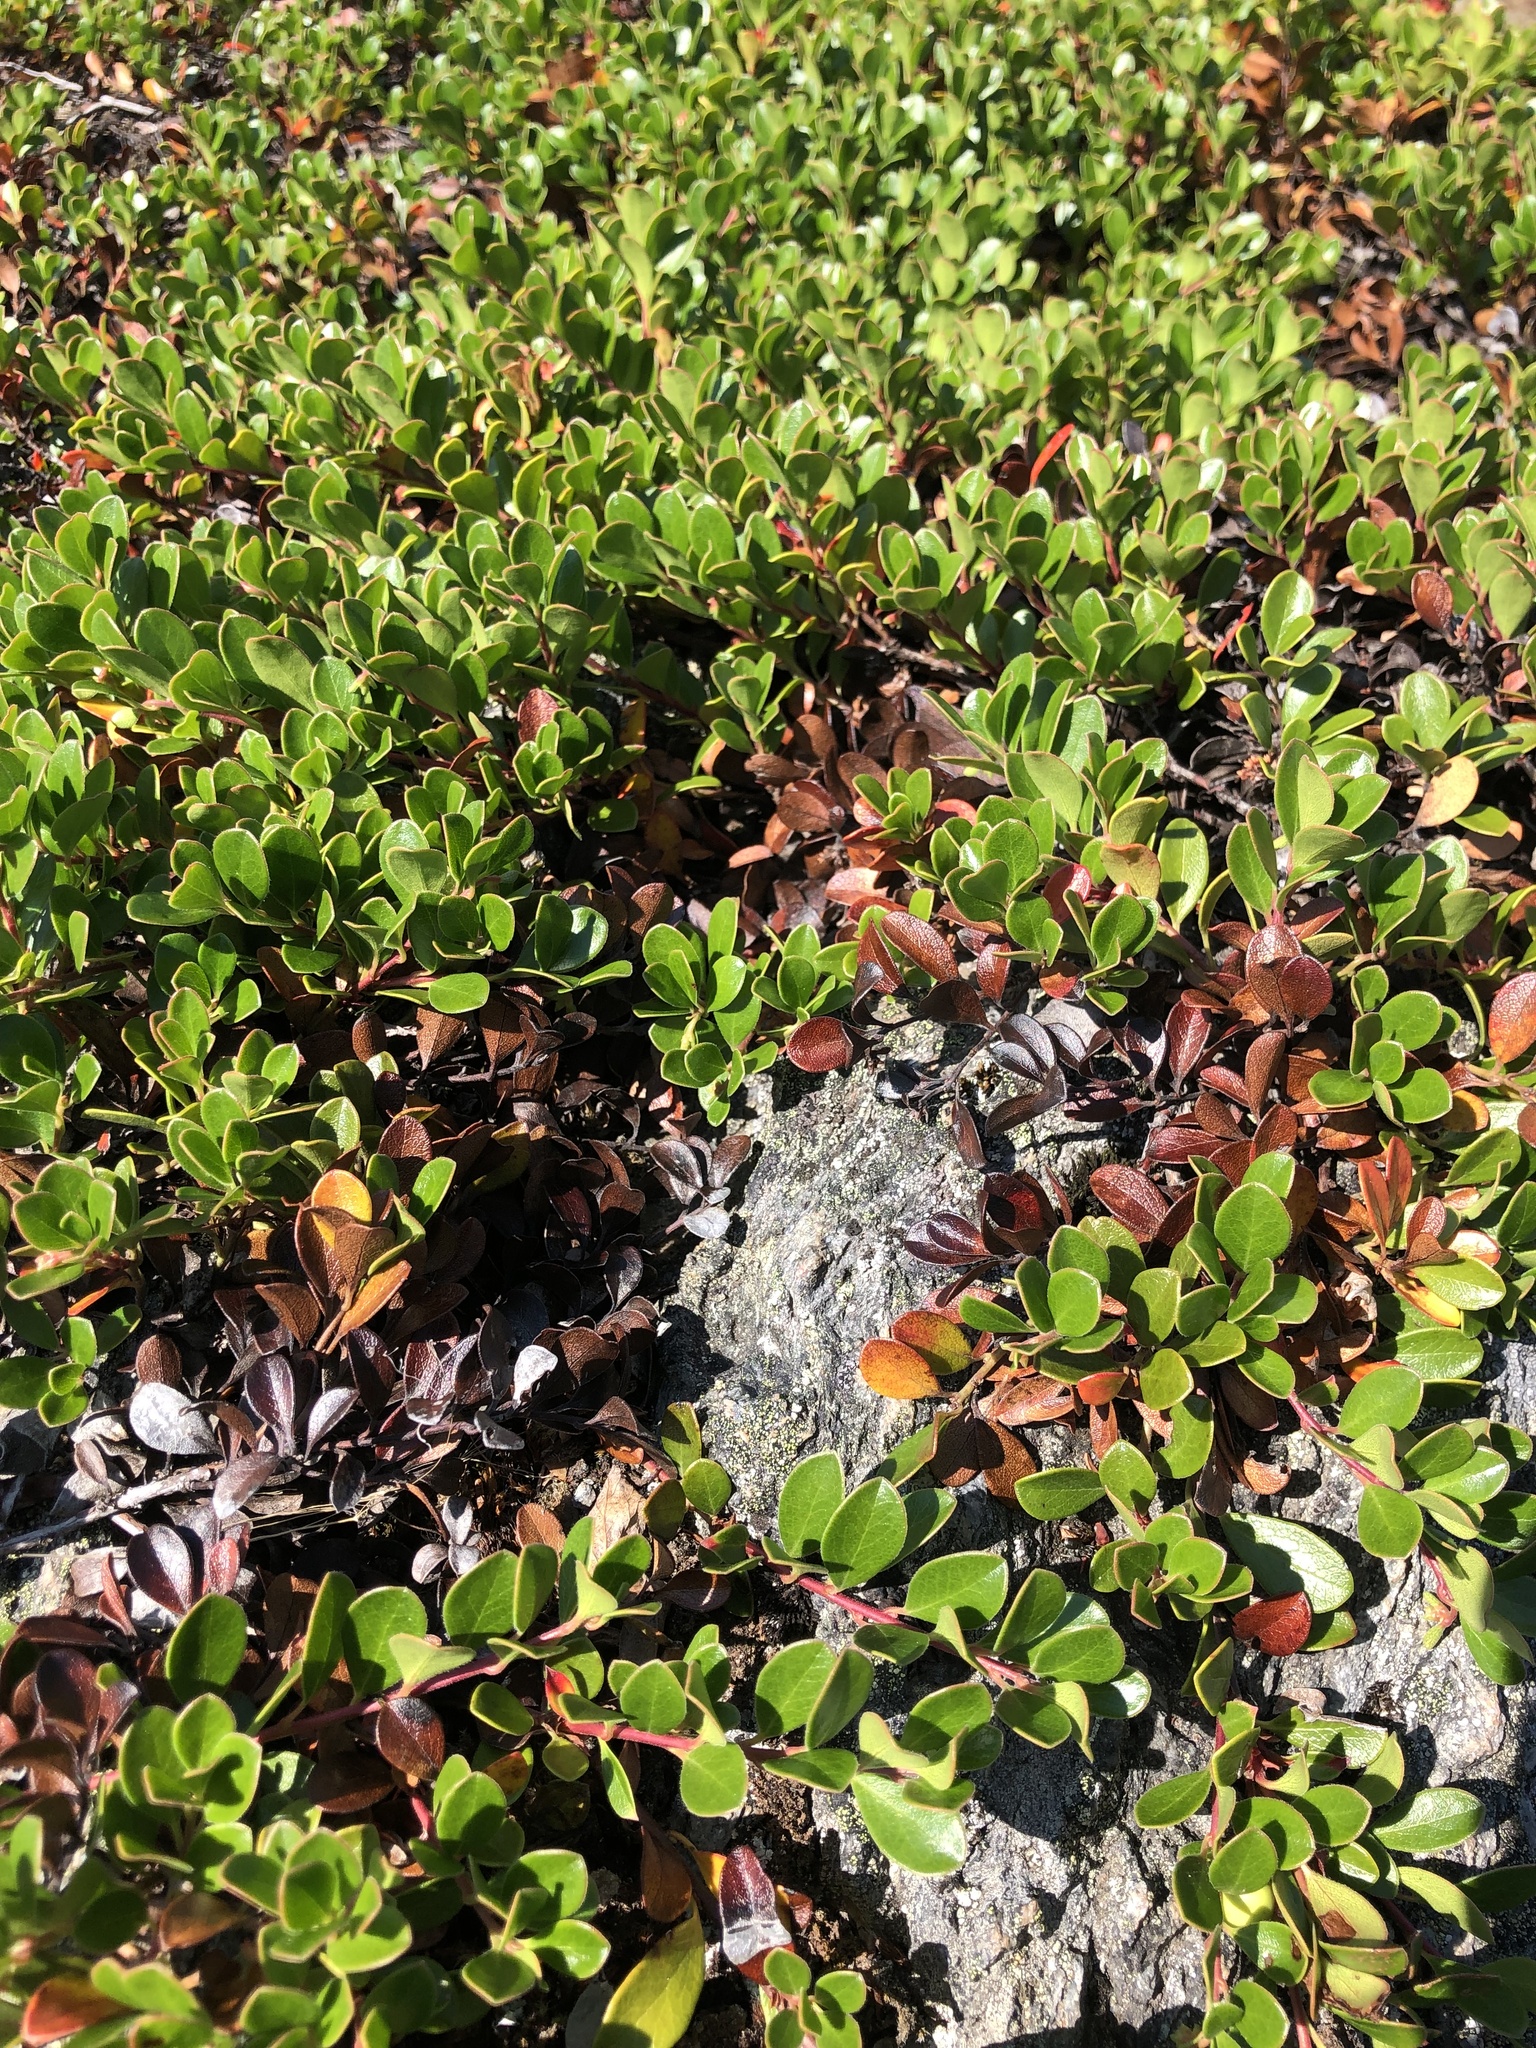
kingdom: Plantae
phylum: Tracheophyta
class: Magnoliopsida
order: Ericales
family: Ericaceae
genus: Arctostaphylos
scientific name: Arctostaphylos uva-ursi
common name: Bearberry
